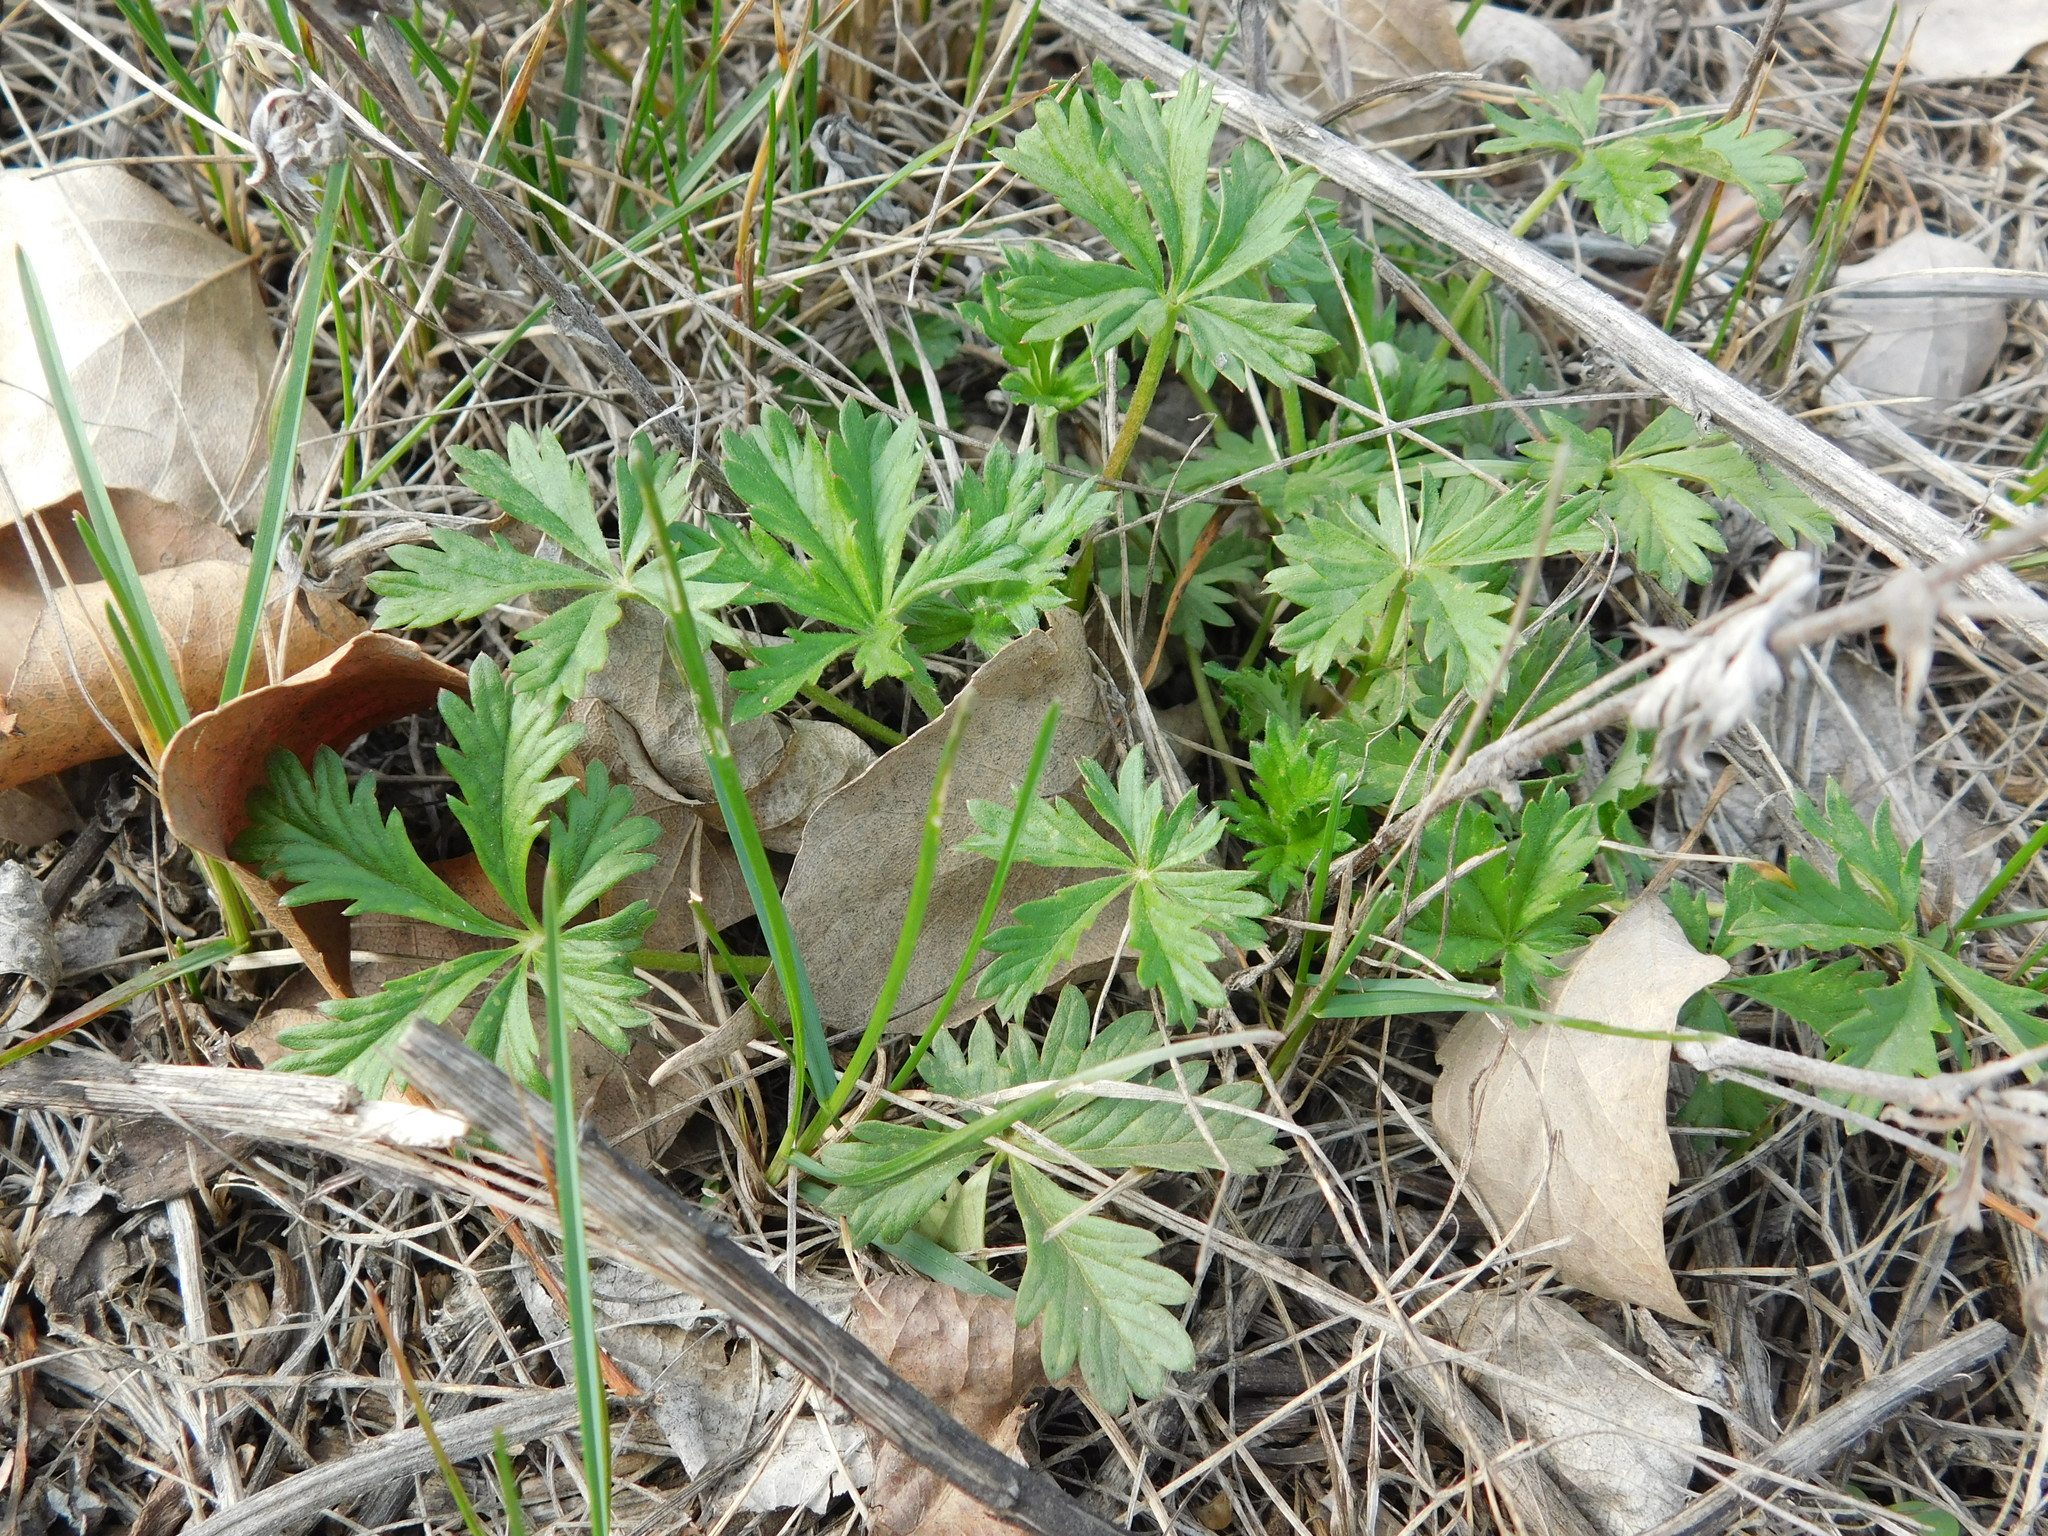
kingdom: Plantae
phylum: Tracheophyta
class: Magnoliopsida
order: Rosales
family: Rosaceae
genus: Potentilla
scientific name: Potentilla argentea
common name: Hoary cinquefoil
